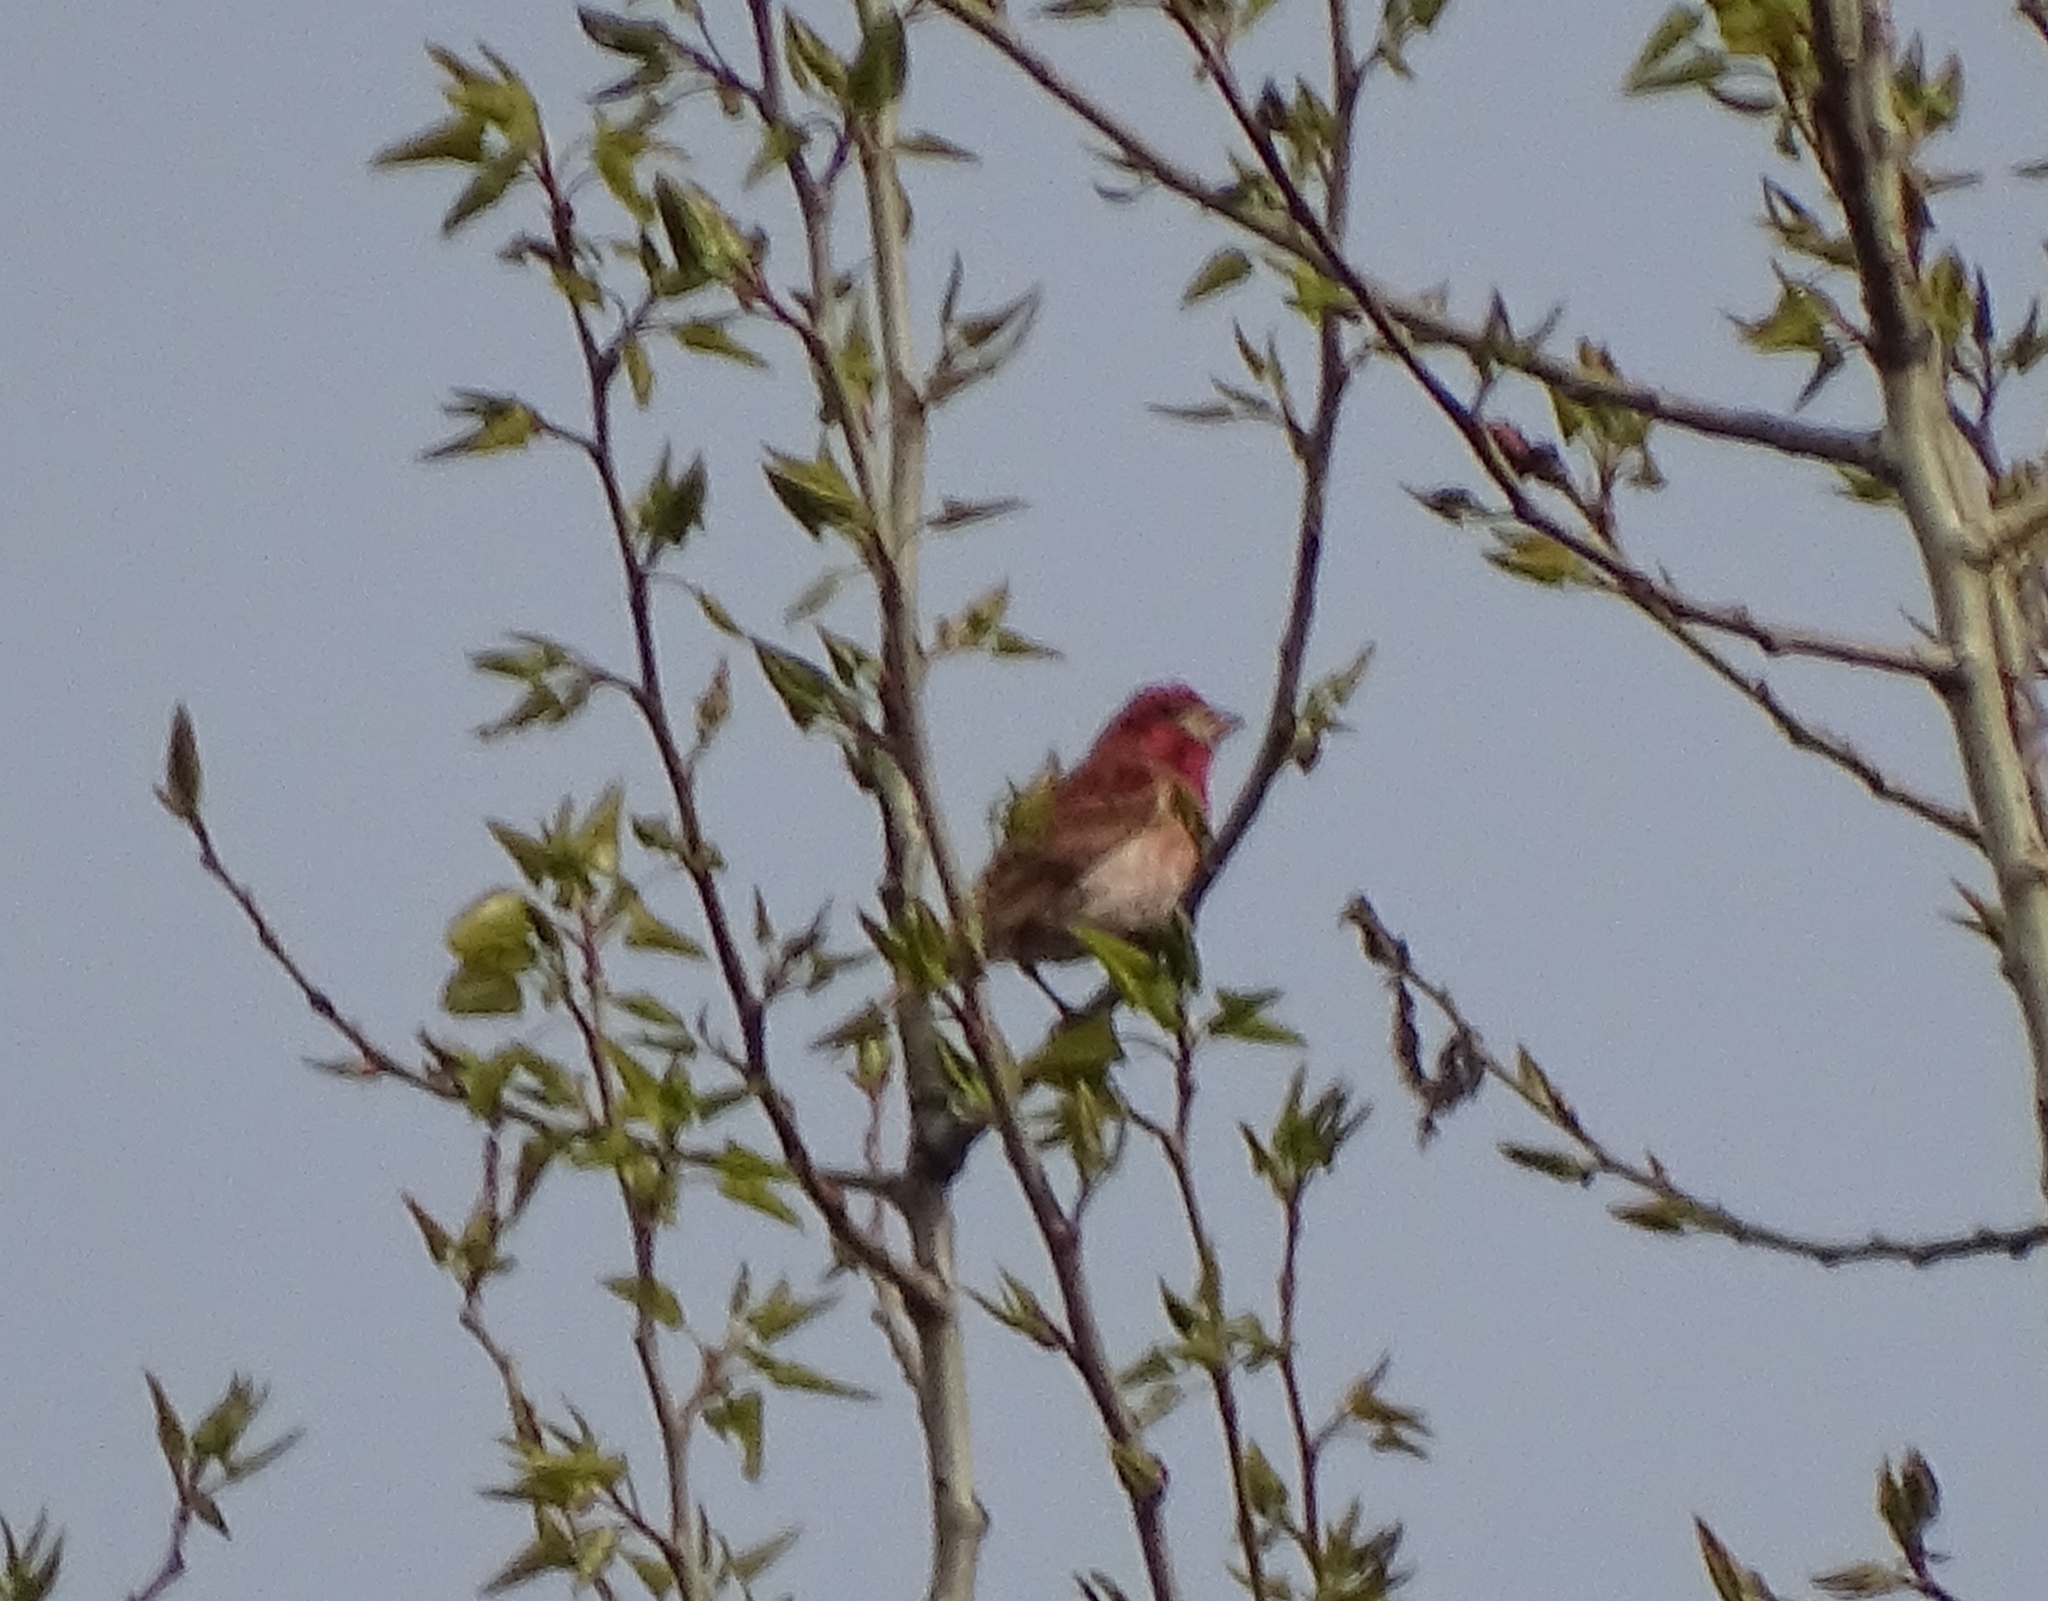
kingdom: Animalia
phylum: Chordata
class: Aves
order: Passeriformes
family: Fringillidae
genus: Haemorhous
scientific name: Haemorhous purpureus
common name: Purple finch
